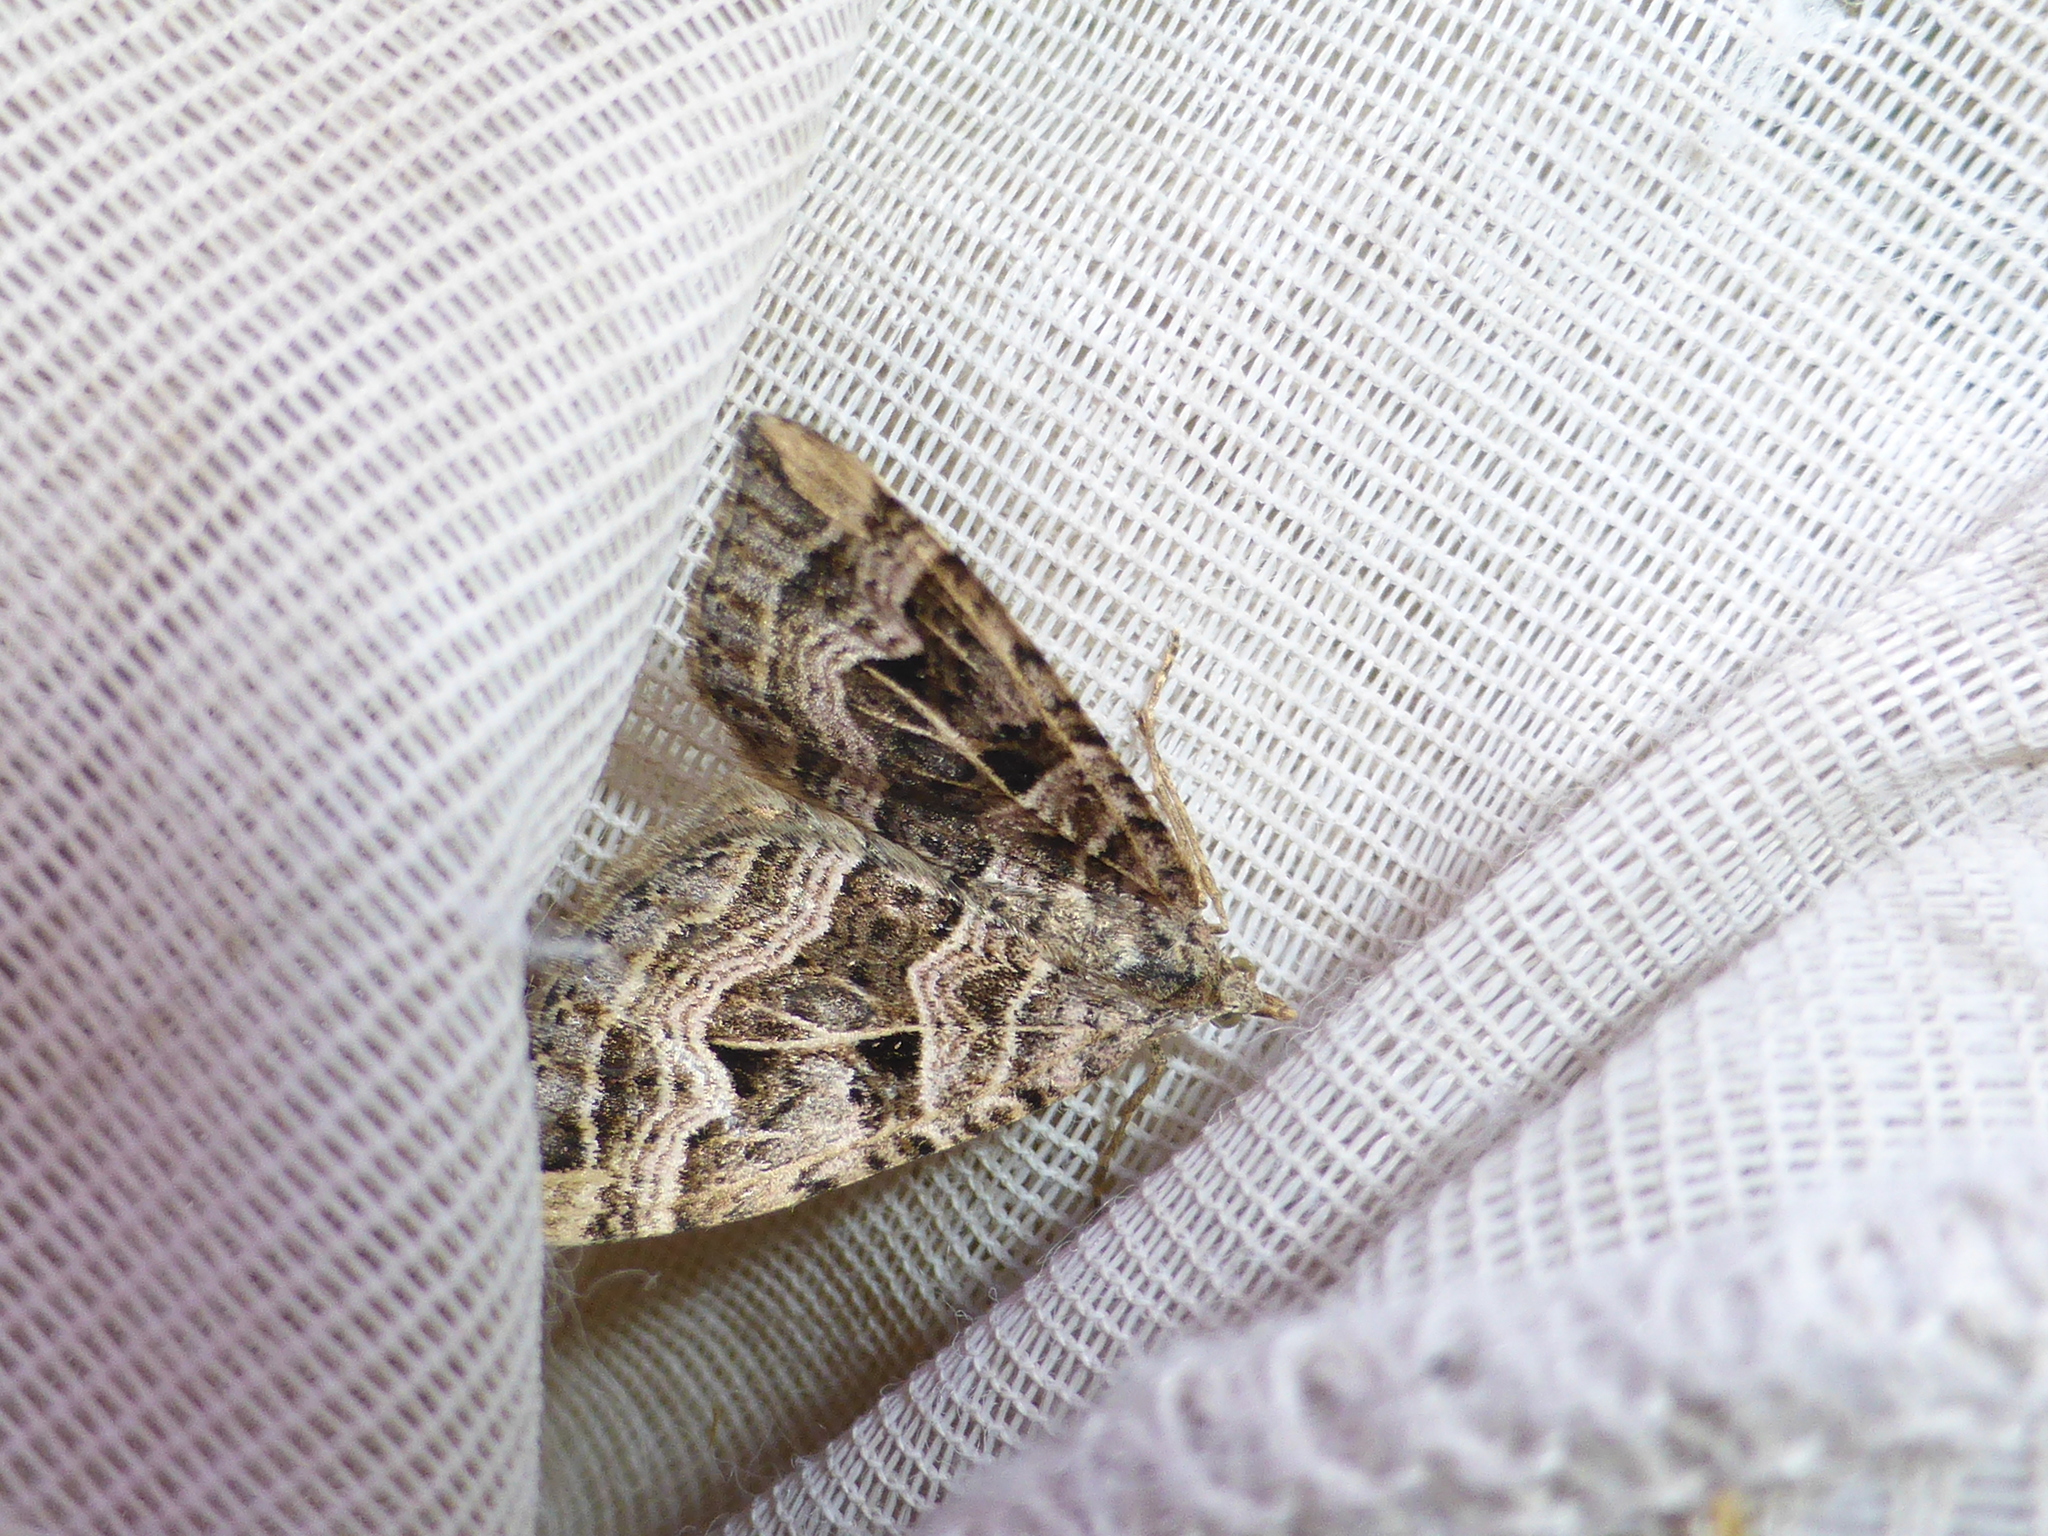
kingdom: Animalia
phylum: Arthropoda
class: Insecta
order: Lepidoptera
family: Geometridae
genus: Xanthorhoe
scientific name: Xanthorhoe semifissata
